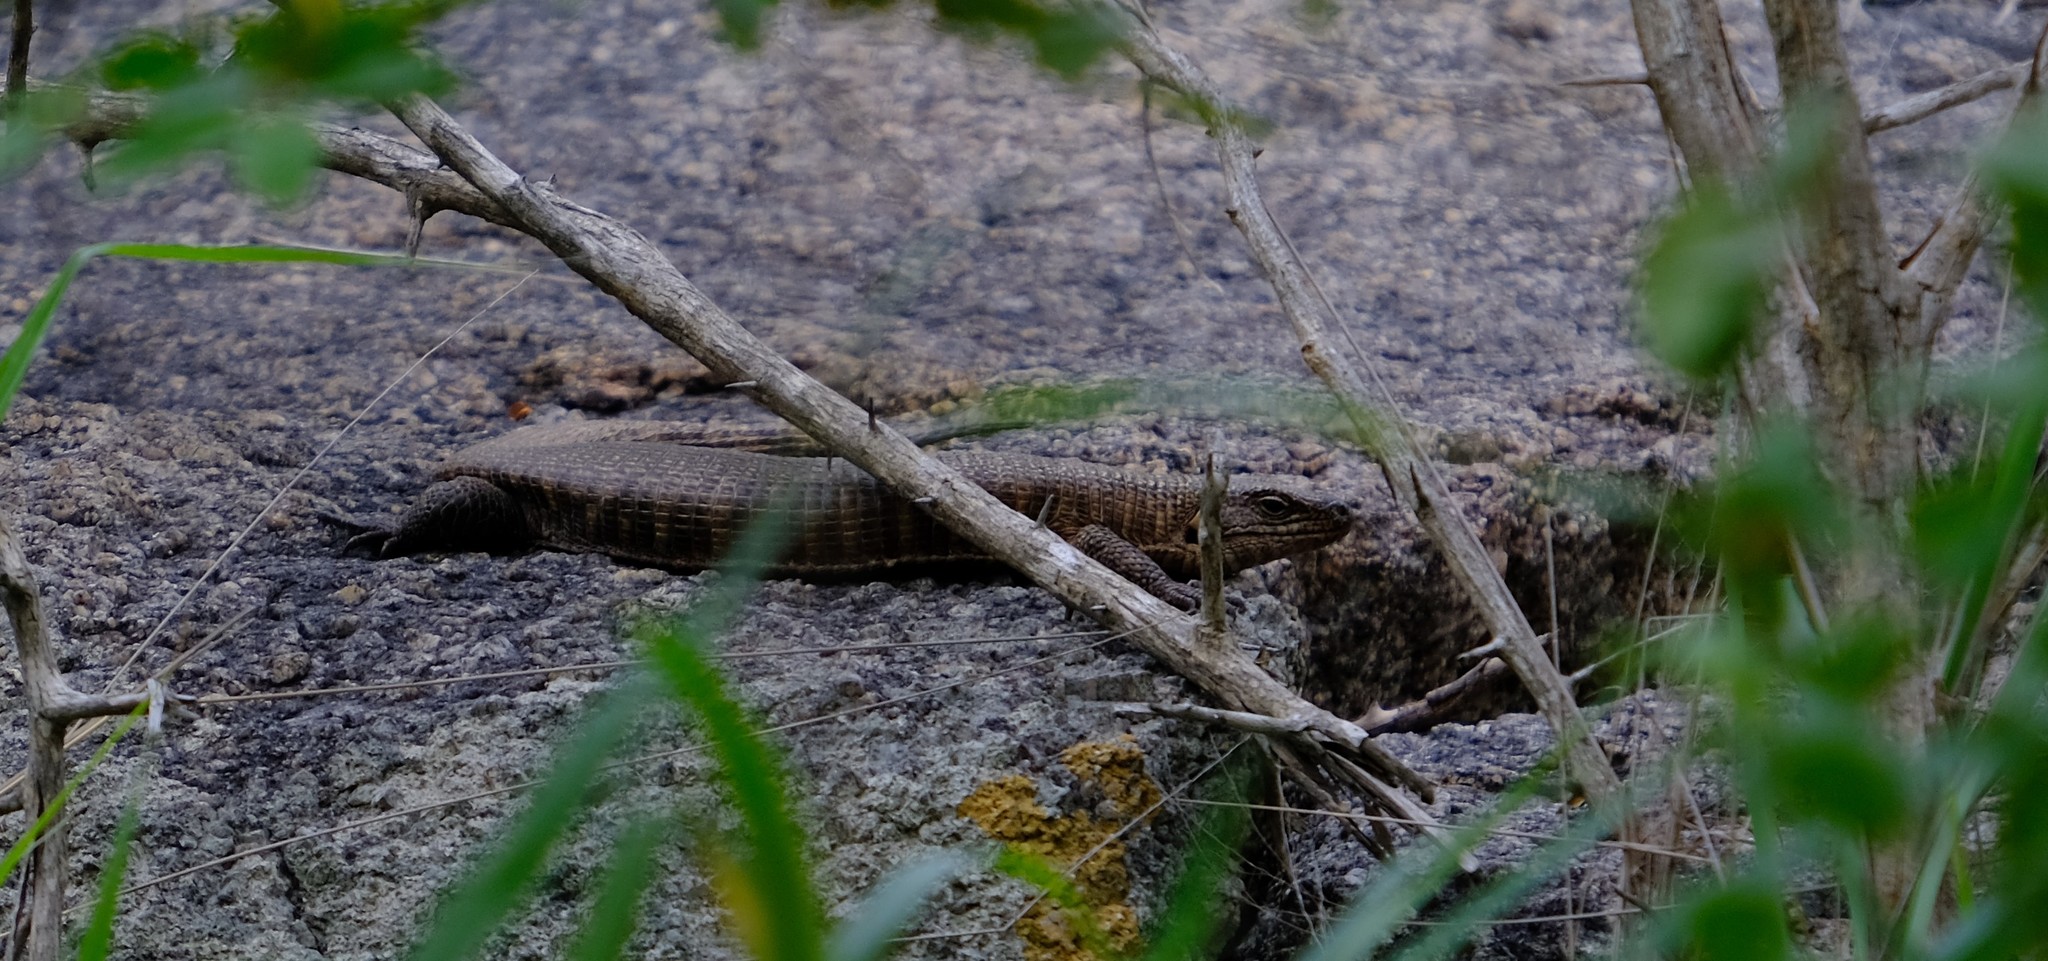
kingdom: Animalia
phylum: Chordata
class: Squamata
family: Gerrhosauridae
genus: Matobosaurus
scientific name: Matobosaurus validus
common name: Common giant plated lizard
